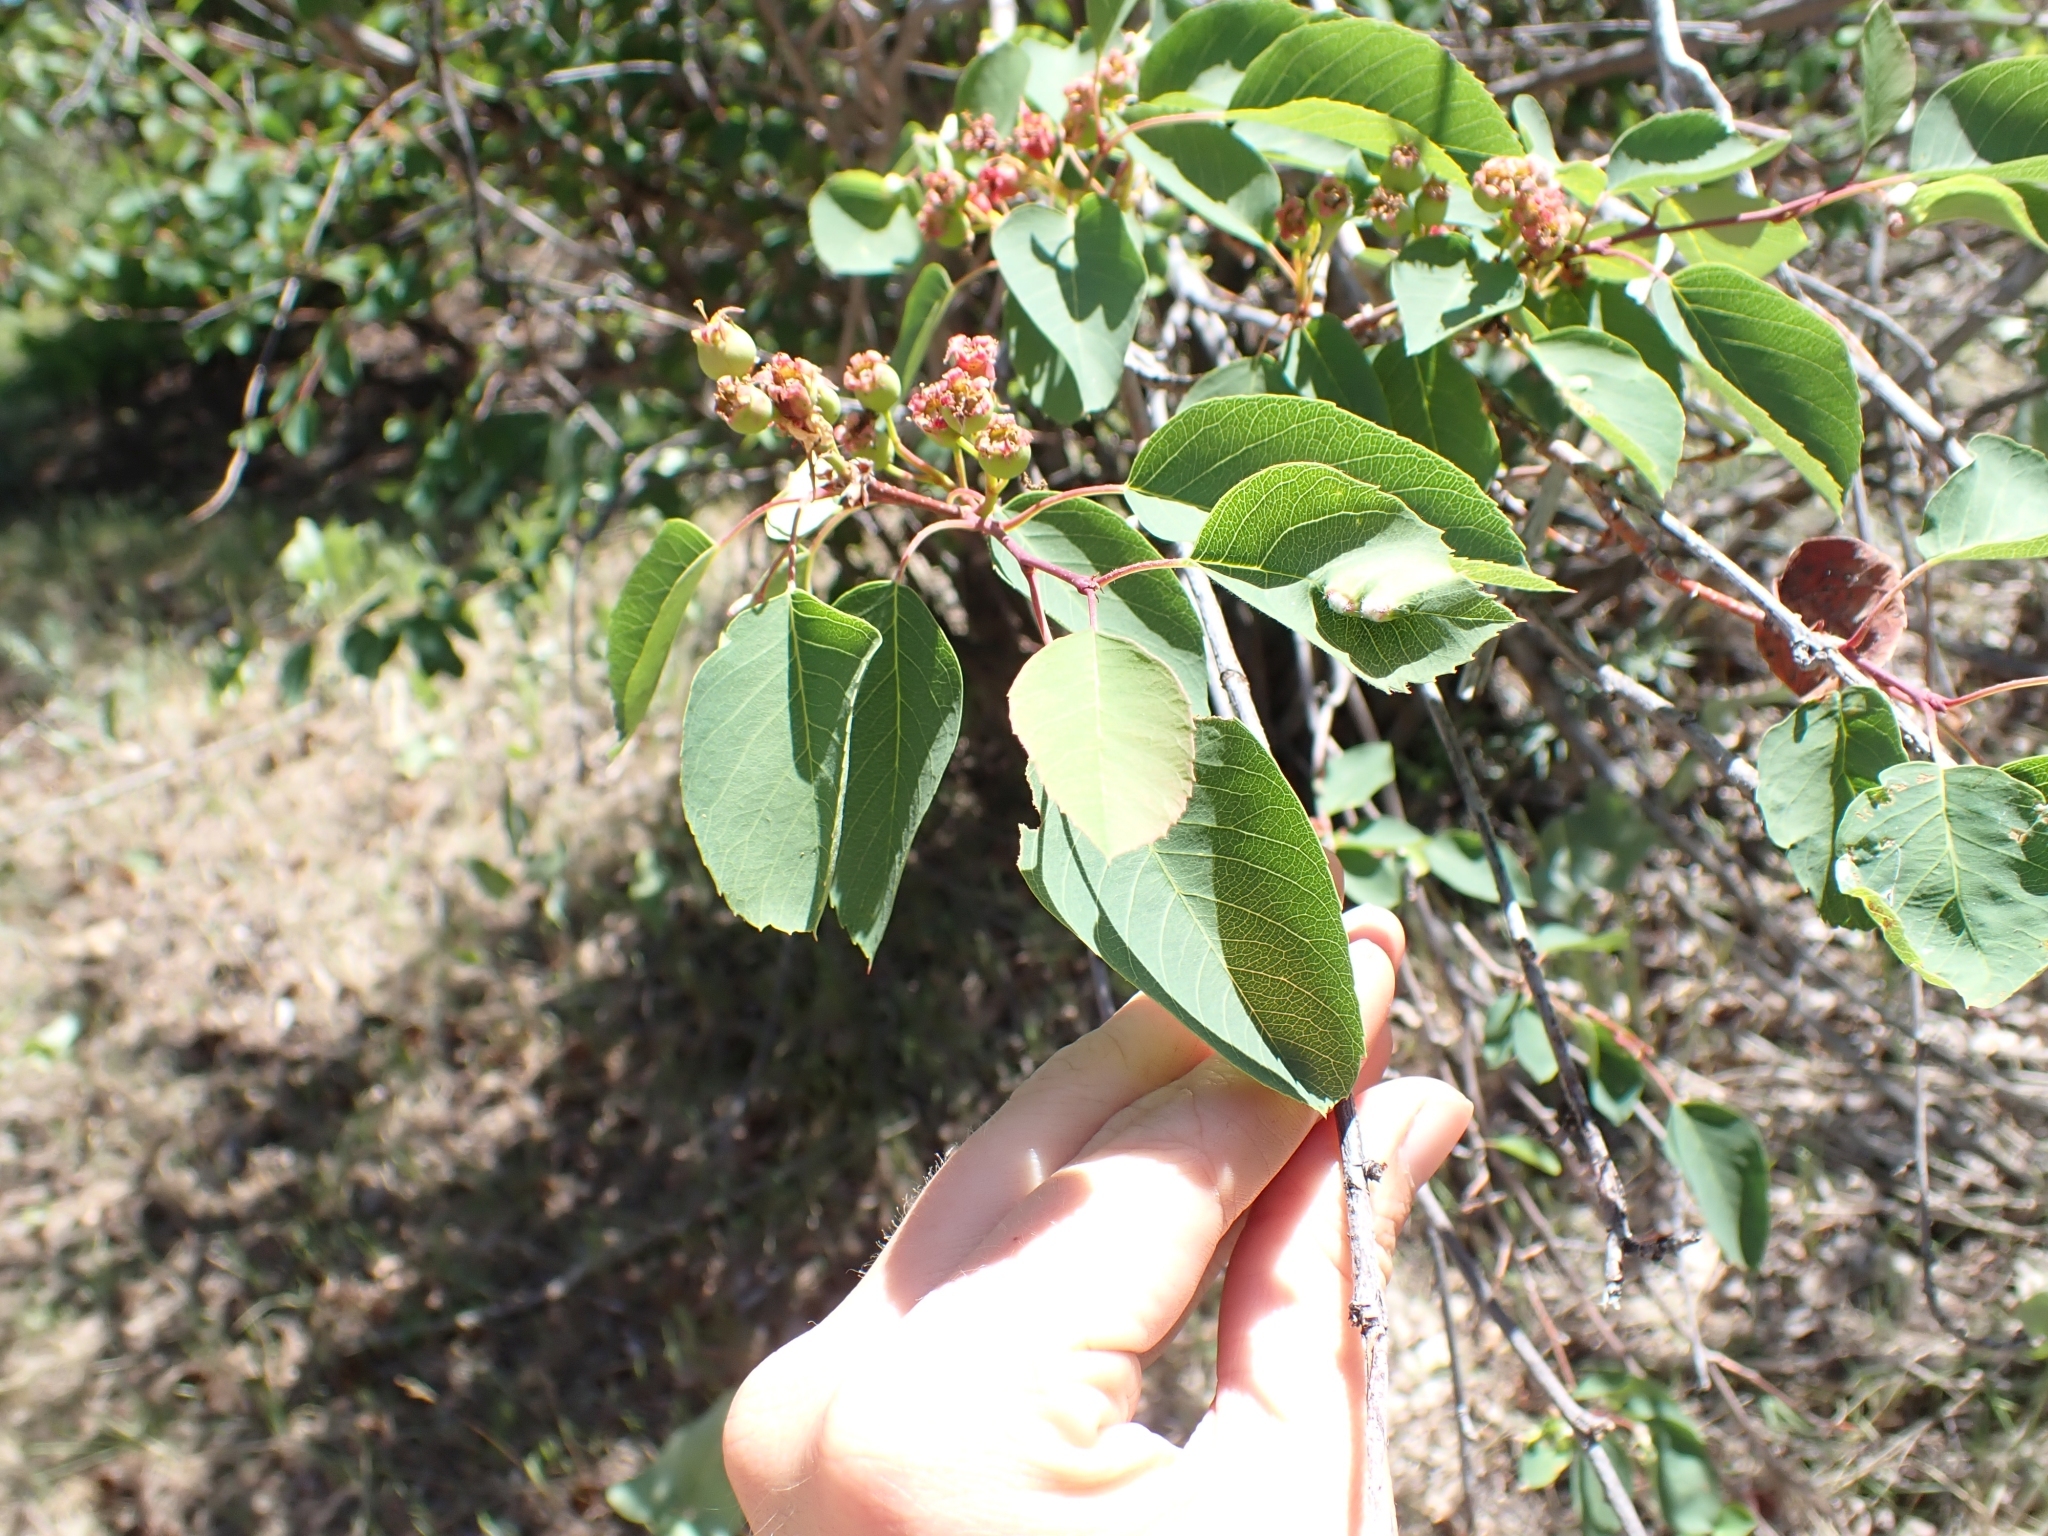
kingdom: Plantae
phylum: Tracheophyta
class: Magnoliopsida
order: Rosales
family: Rosaceae
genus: Amelanchier
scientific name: Amelanchier alnifolia
